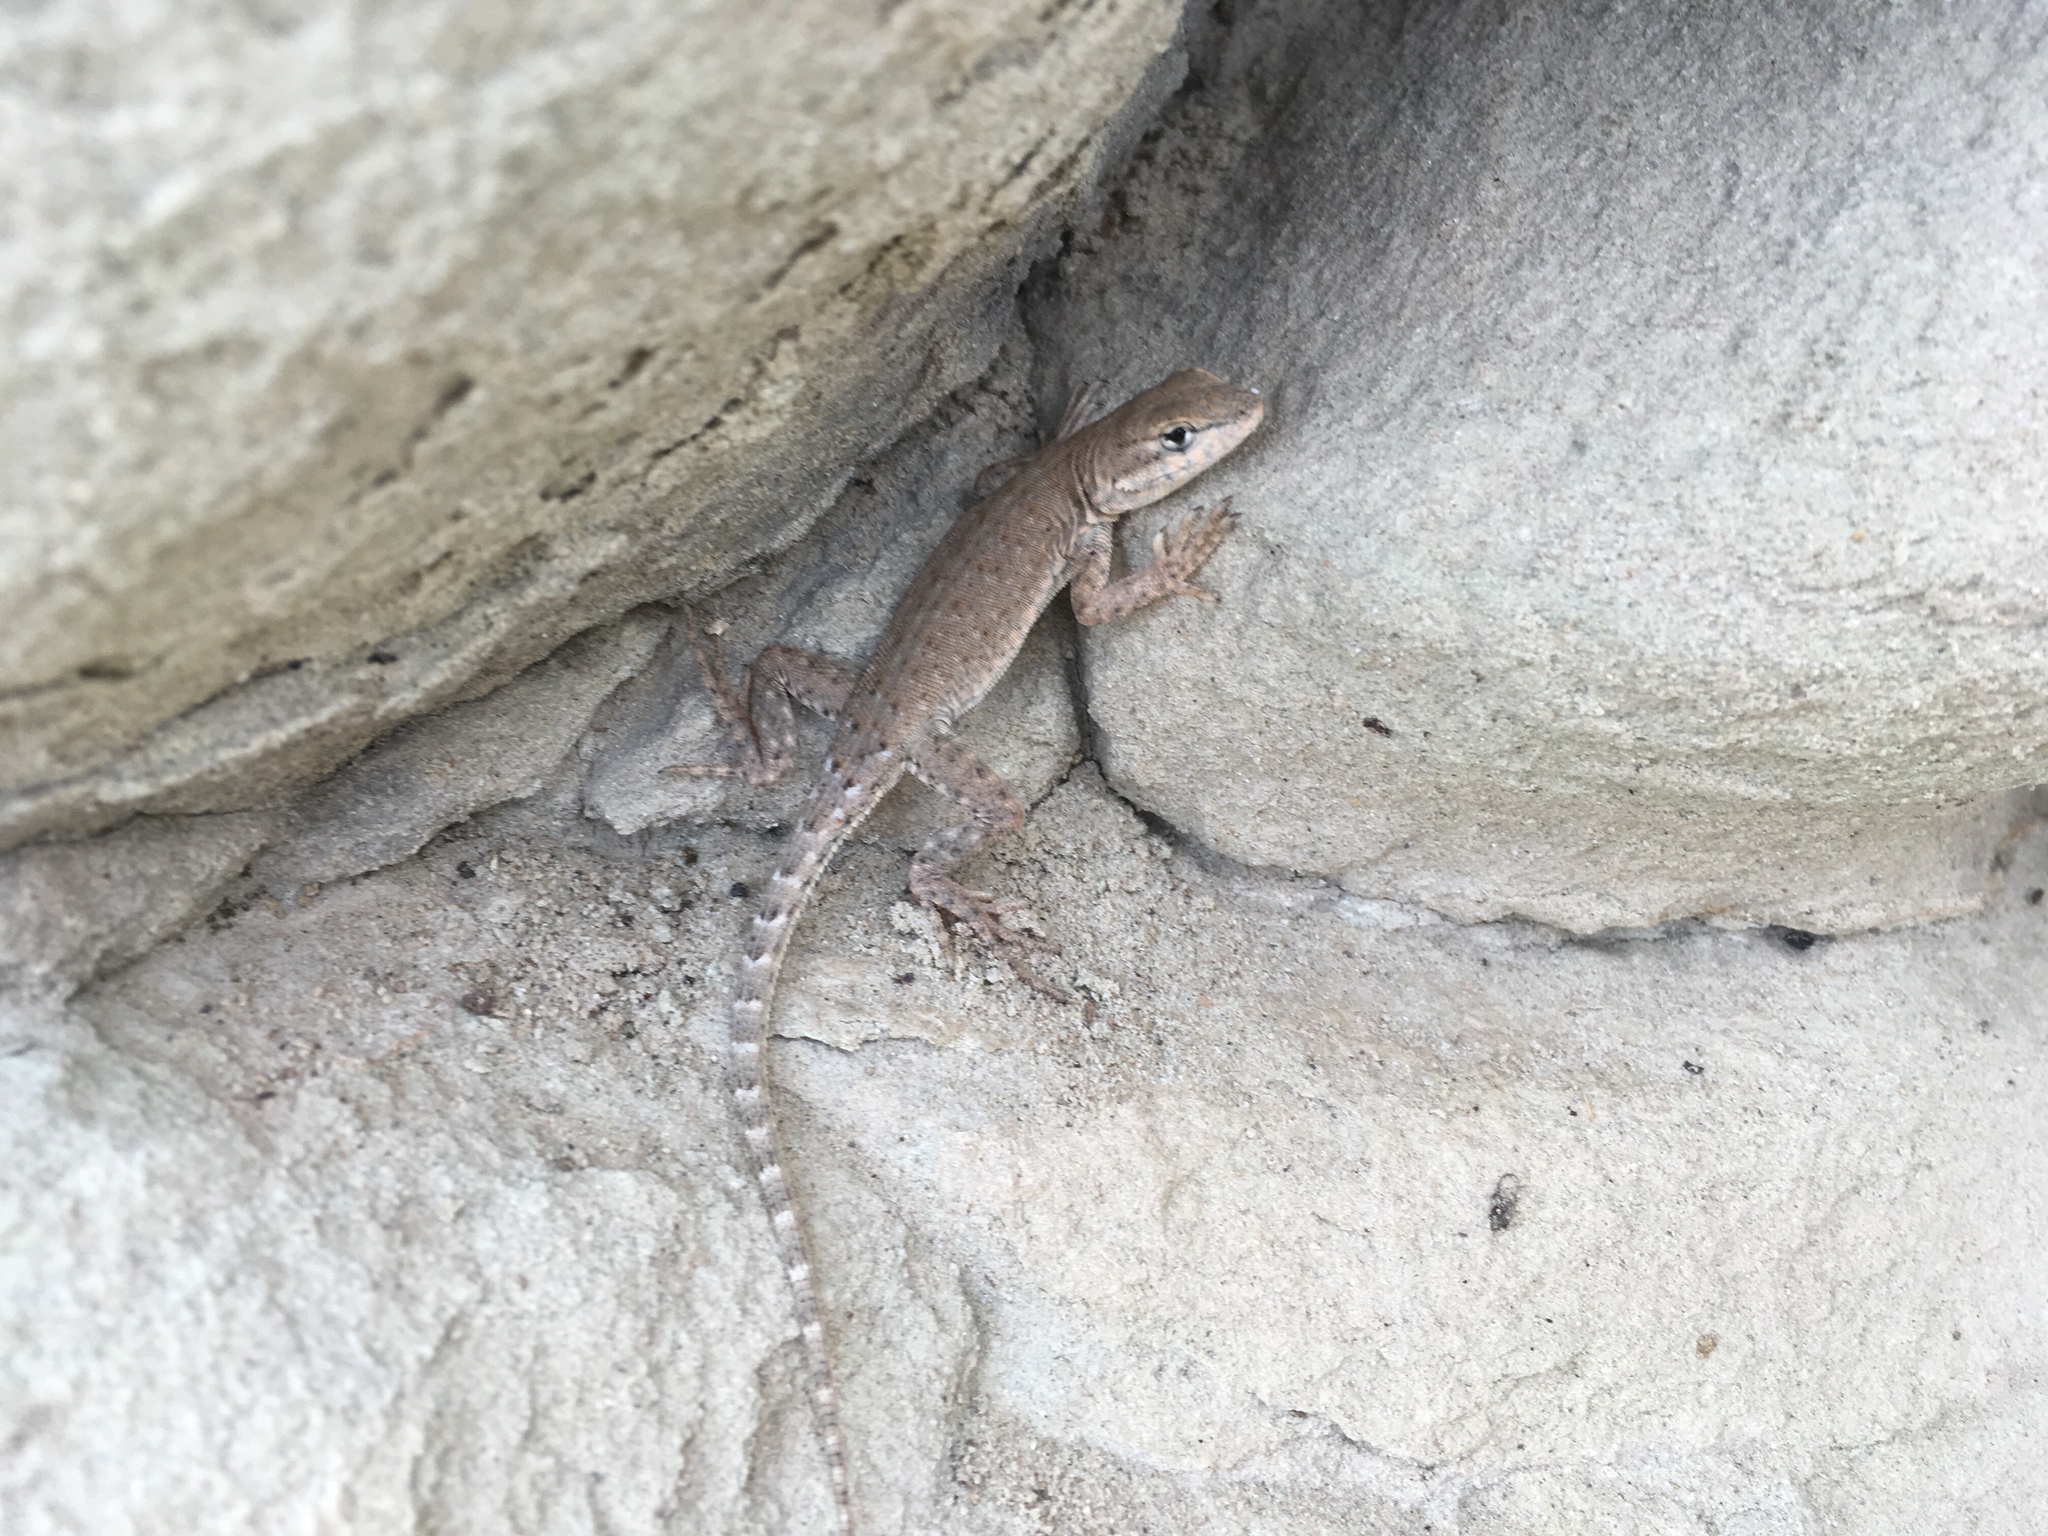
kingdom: Animalia
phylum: Chordata
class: Squamata
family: Phrynosomatidae
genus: Uta
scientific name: Uta stansburiana
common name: Side-blotched lizard
